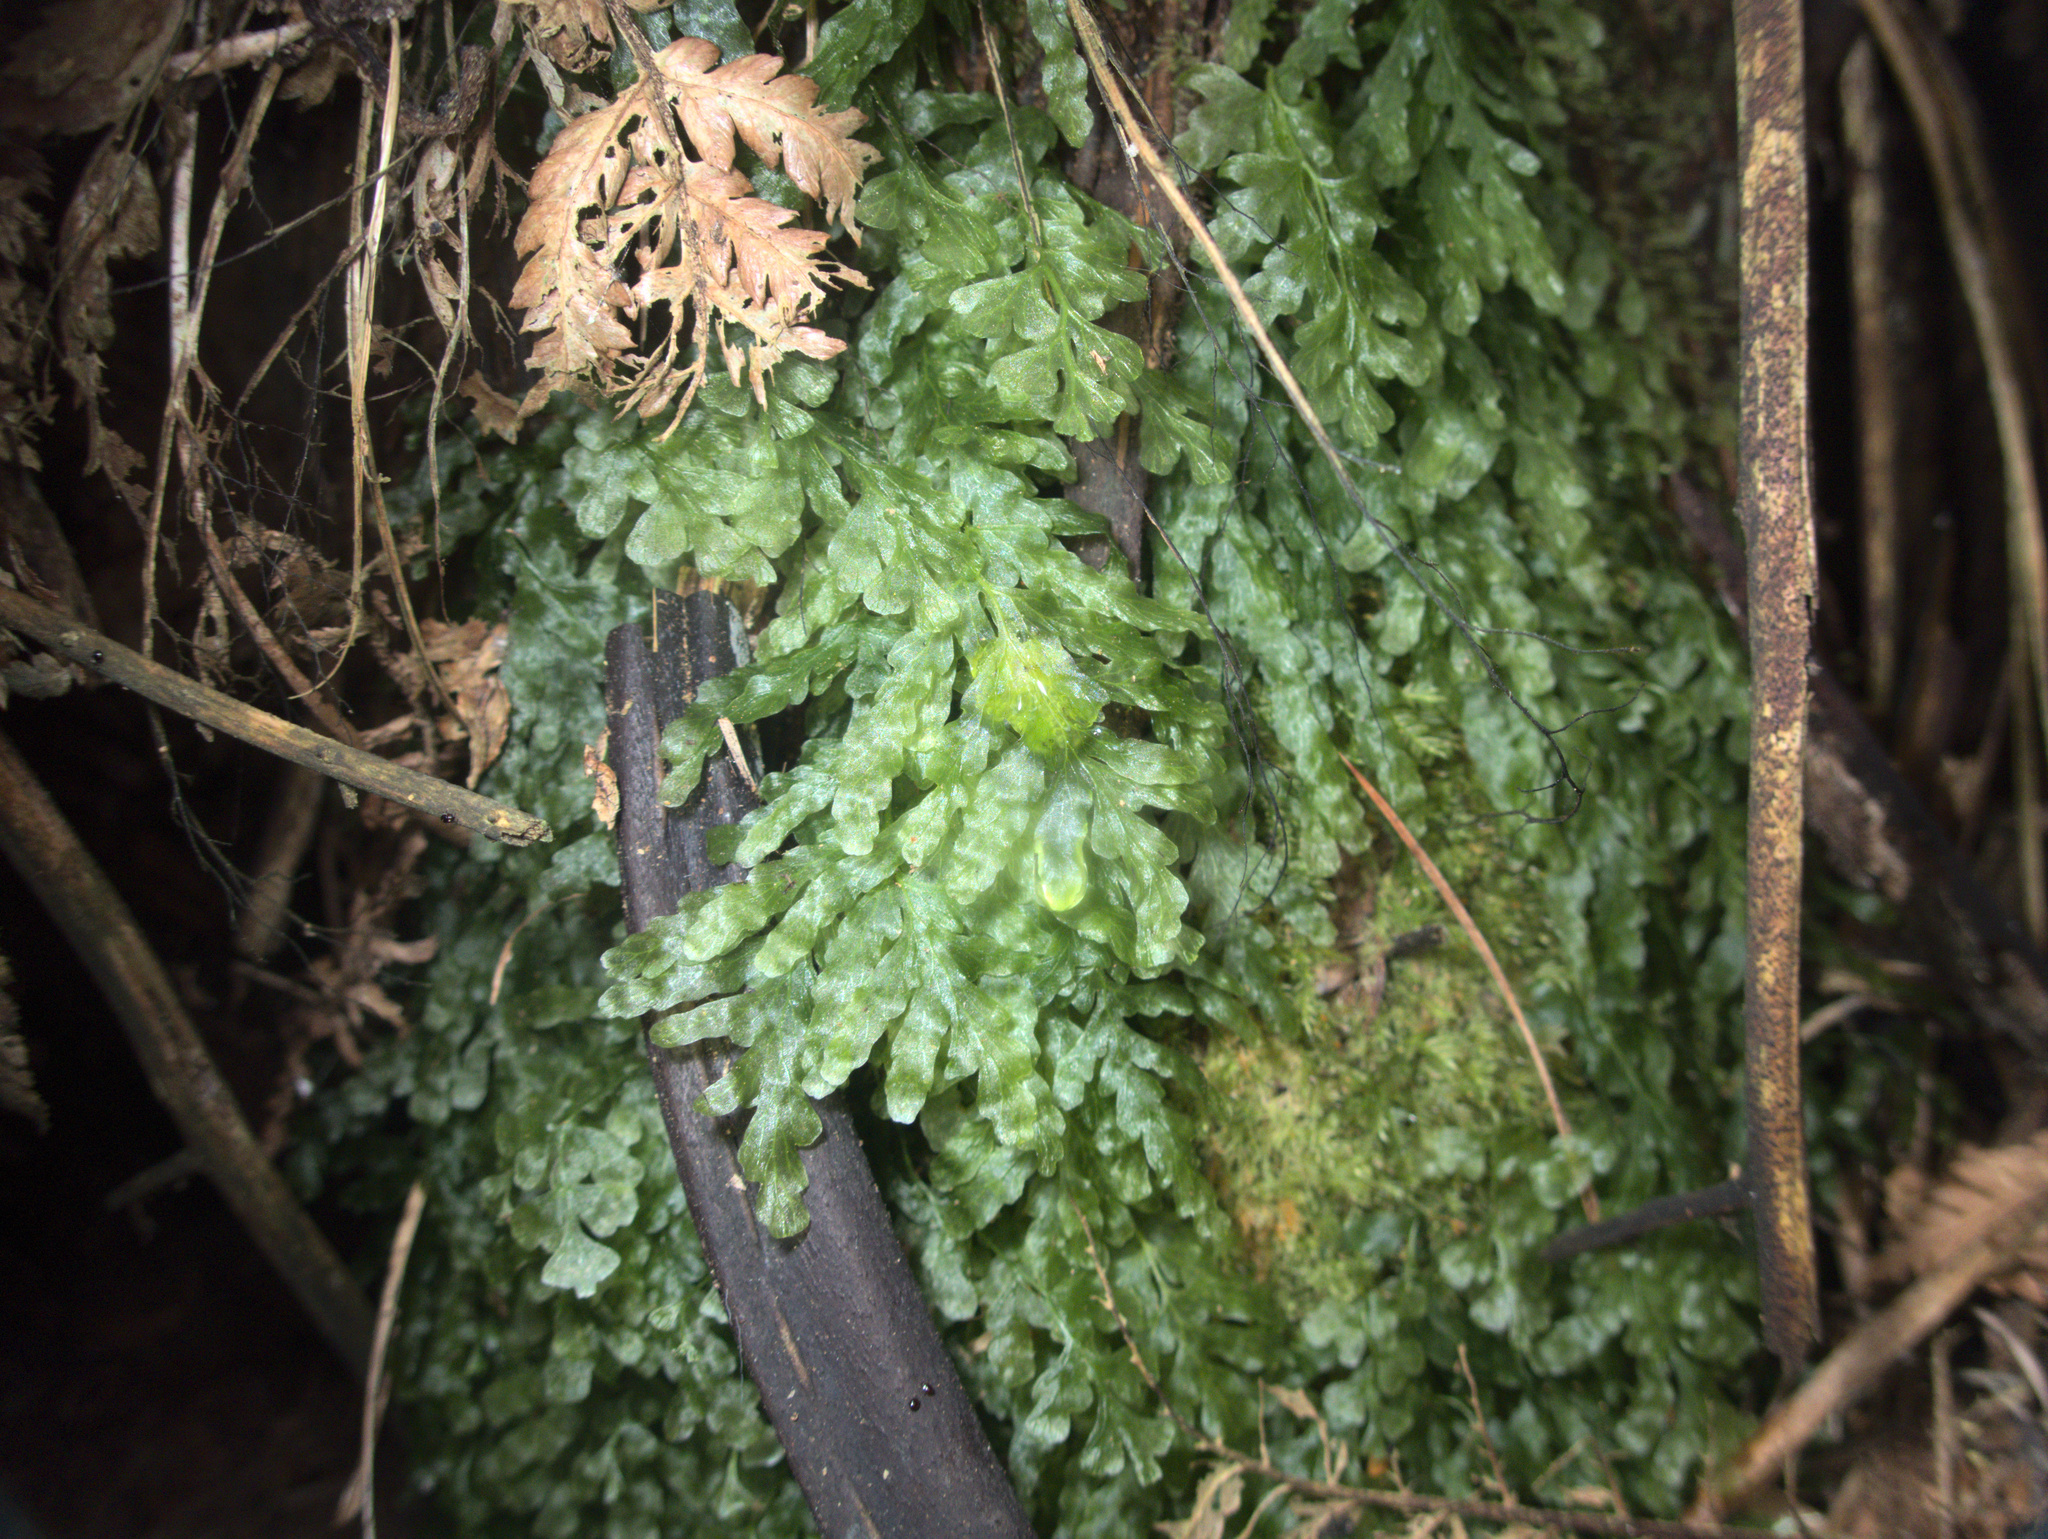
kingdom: Plantae
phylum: Tracheophyta
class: Polypodiopsida
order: Hymenophyllales
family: Hymenophyllaceae
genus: Polyphlebium
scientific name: Polyphlebium venosum
